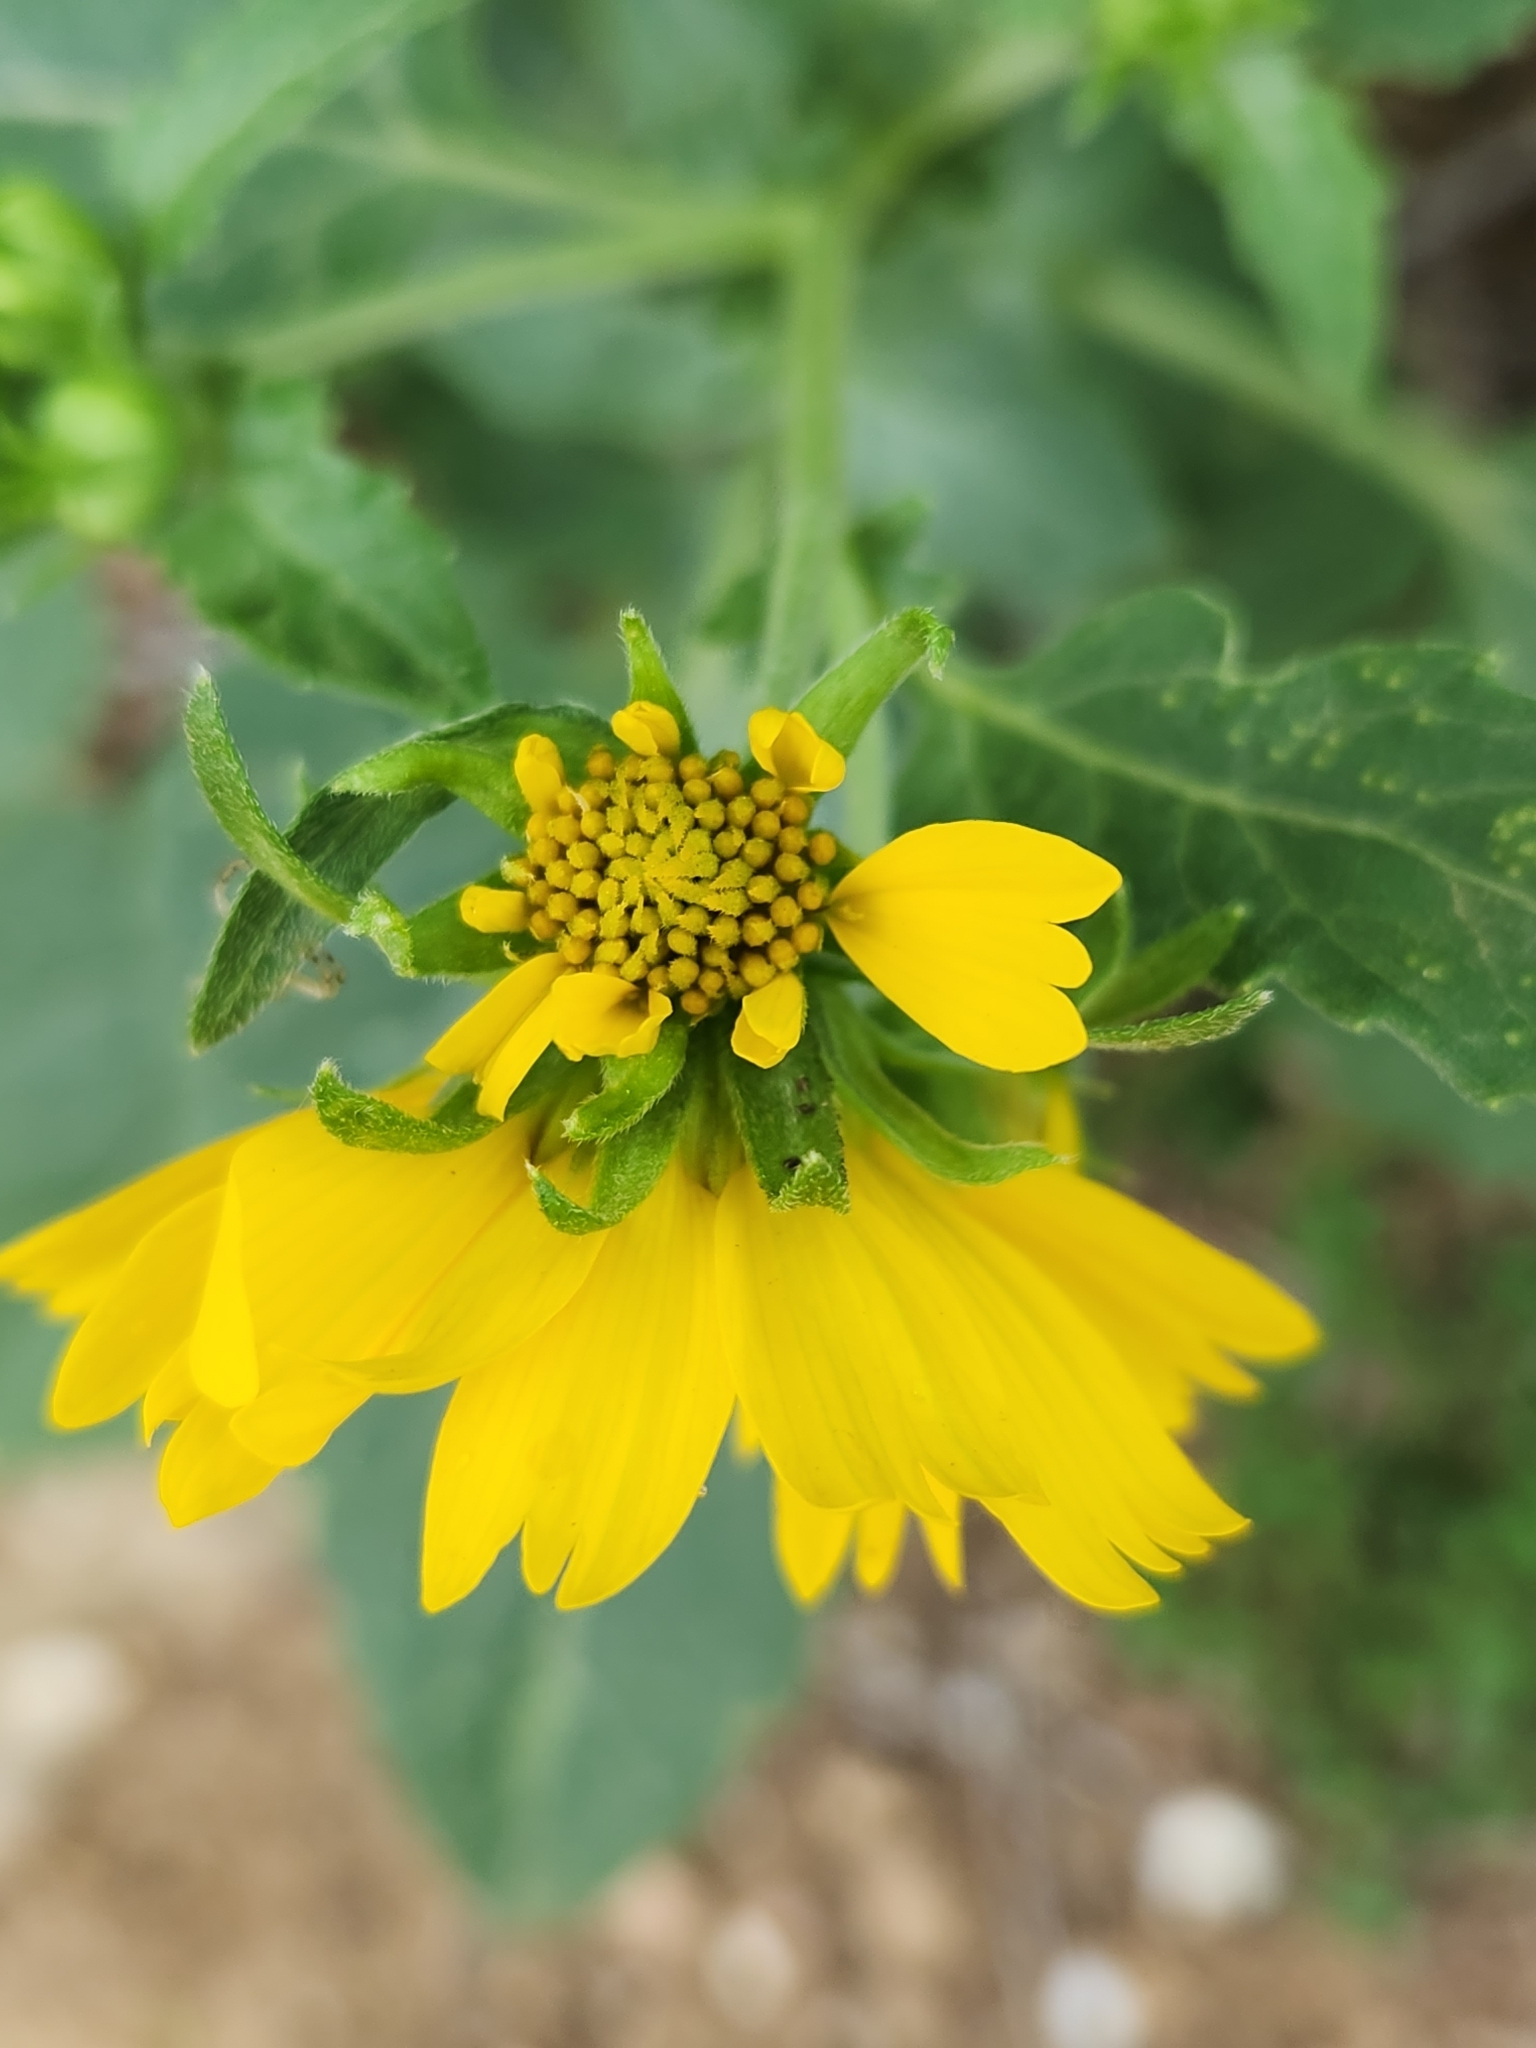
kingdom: Plantae
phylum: Tracheophyta
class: Magnoliopsida
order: Asterales
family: Asteraceae
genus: Verbesina
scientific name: Verbesina encelioides
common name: Golden crownbeard
